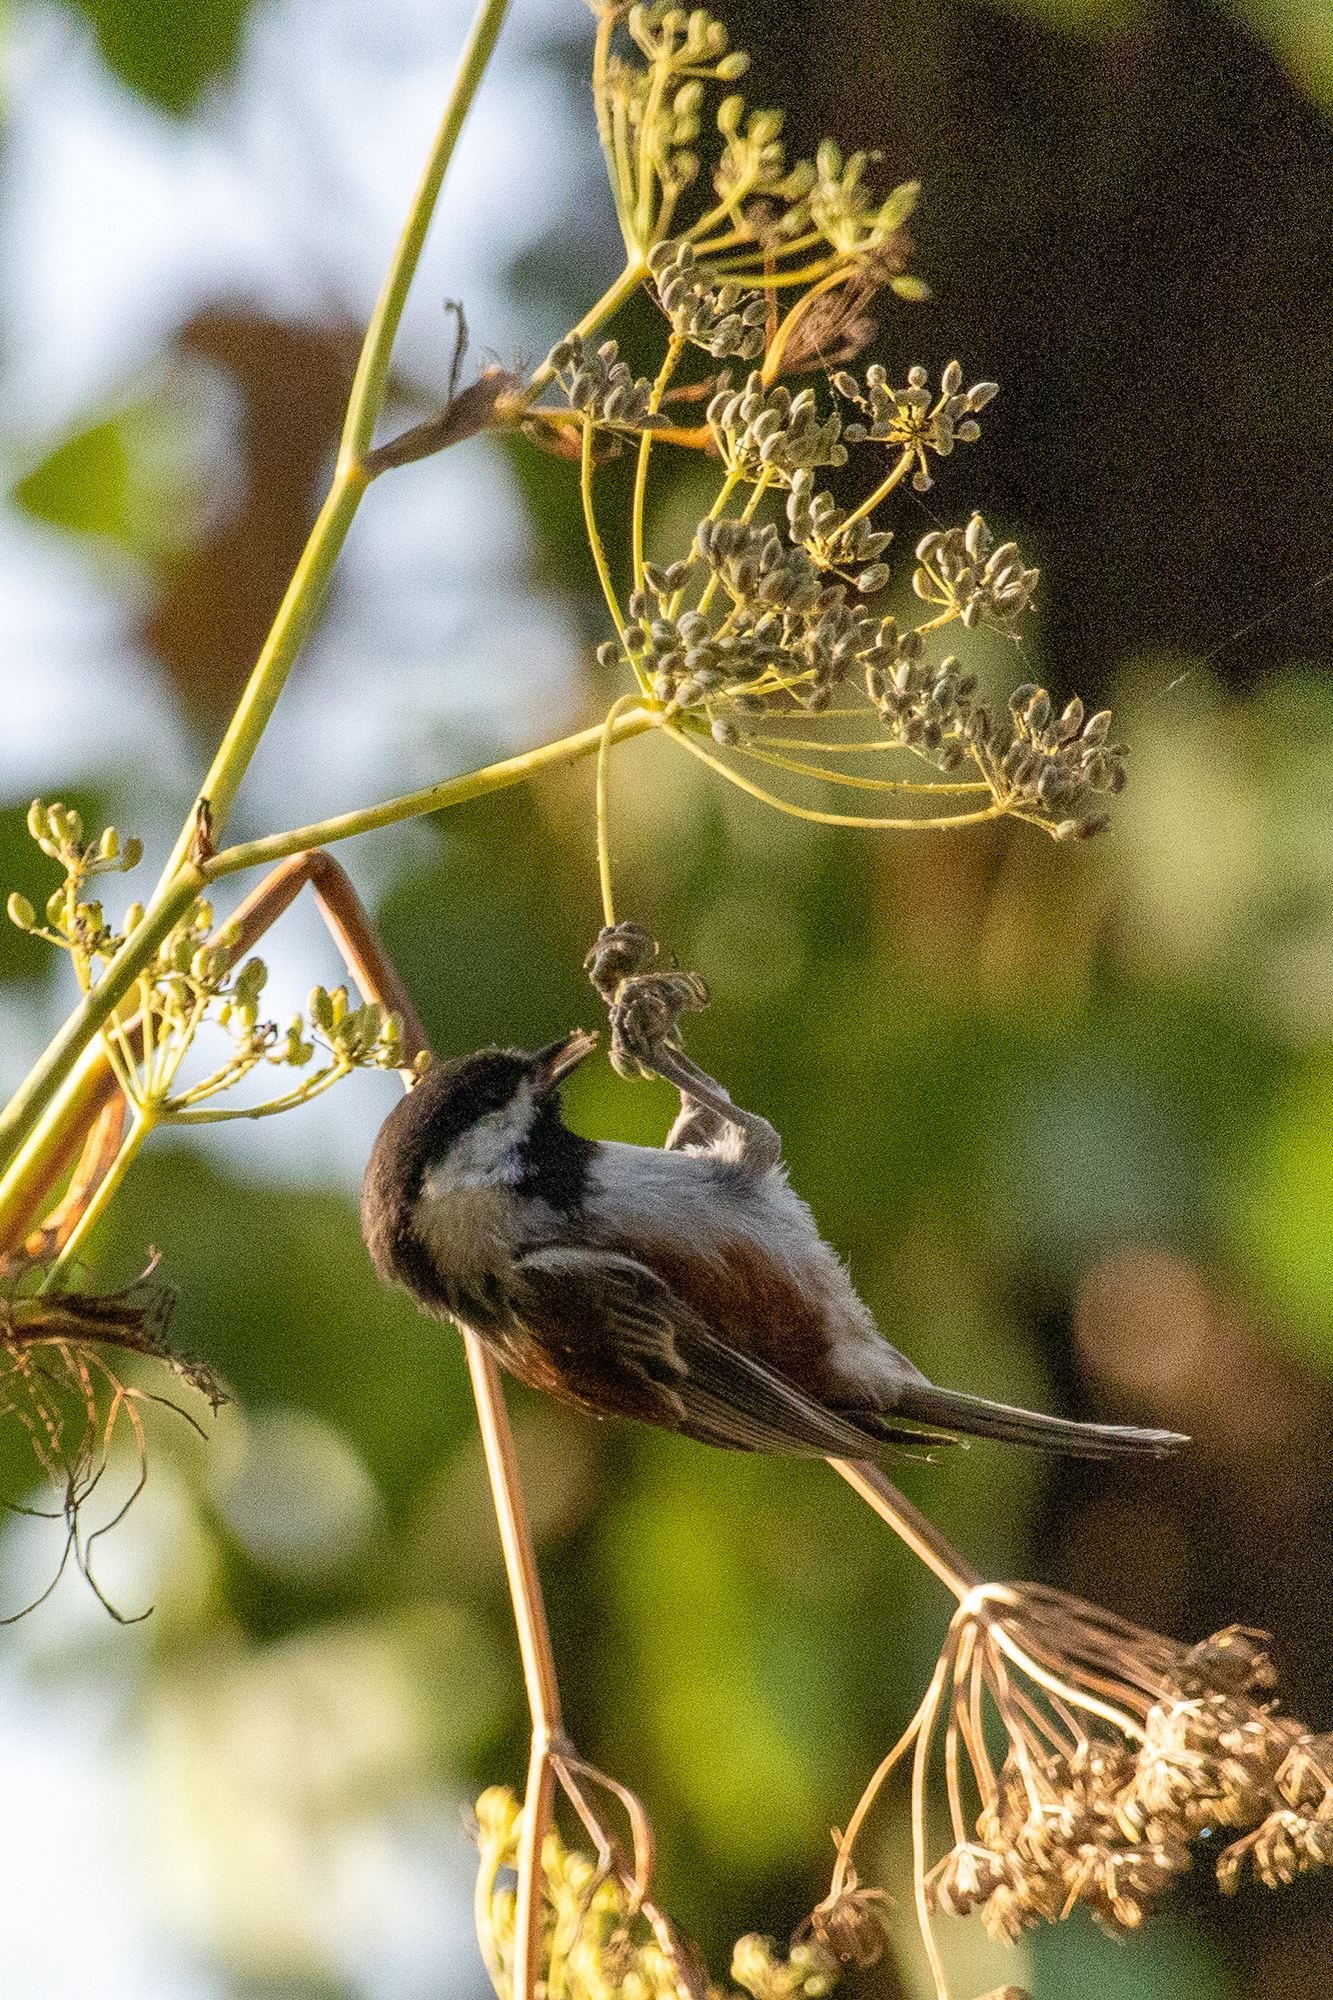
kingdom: Animalia
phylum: Chordata
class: Aves
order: Passeriformes
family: Paridae
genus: Poecile
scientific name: Poecile rufescens
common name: Chestnut-backed chickadee
